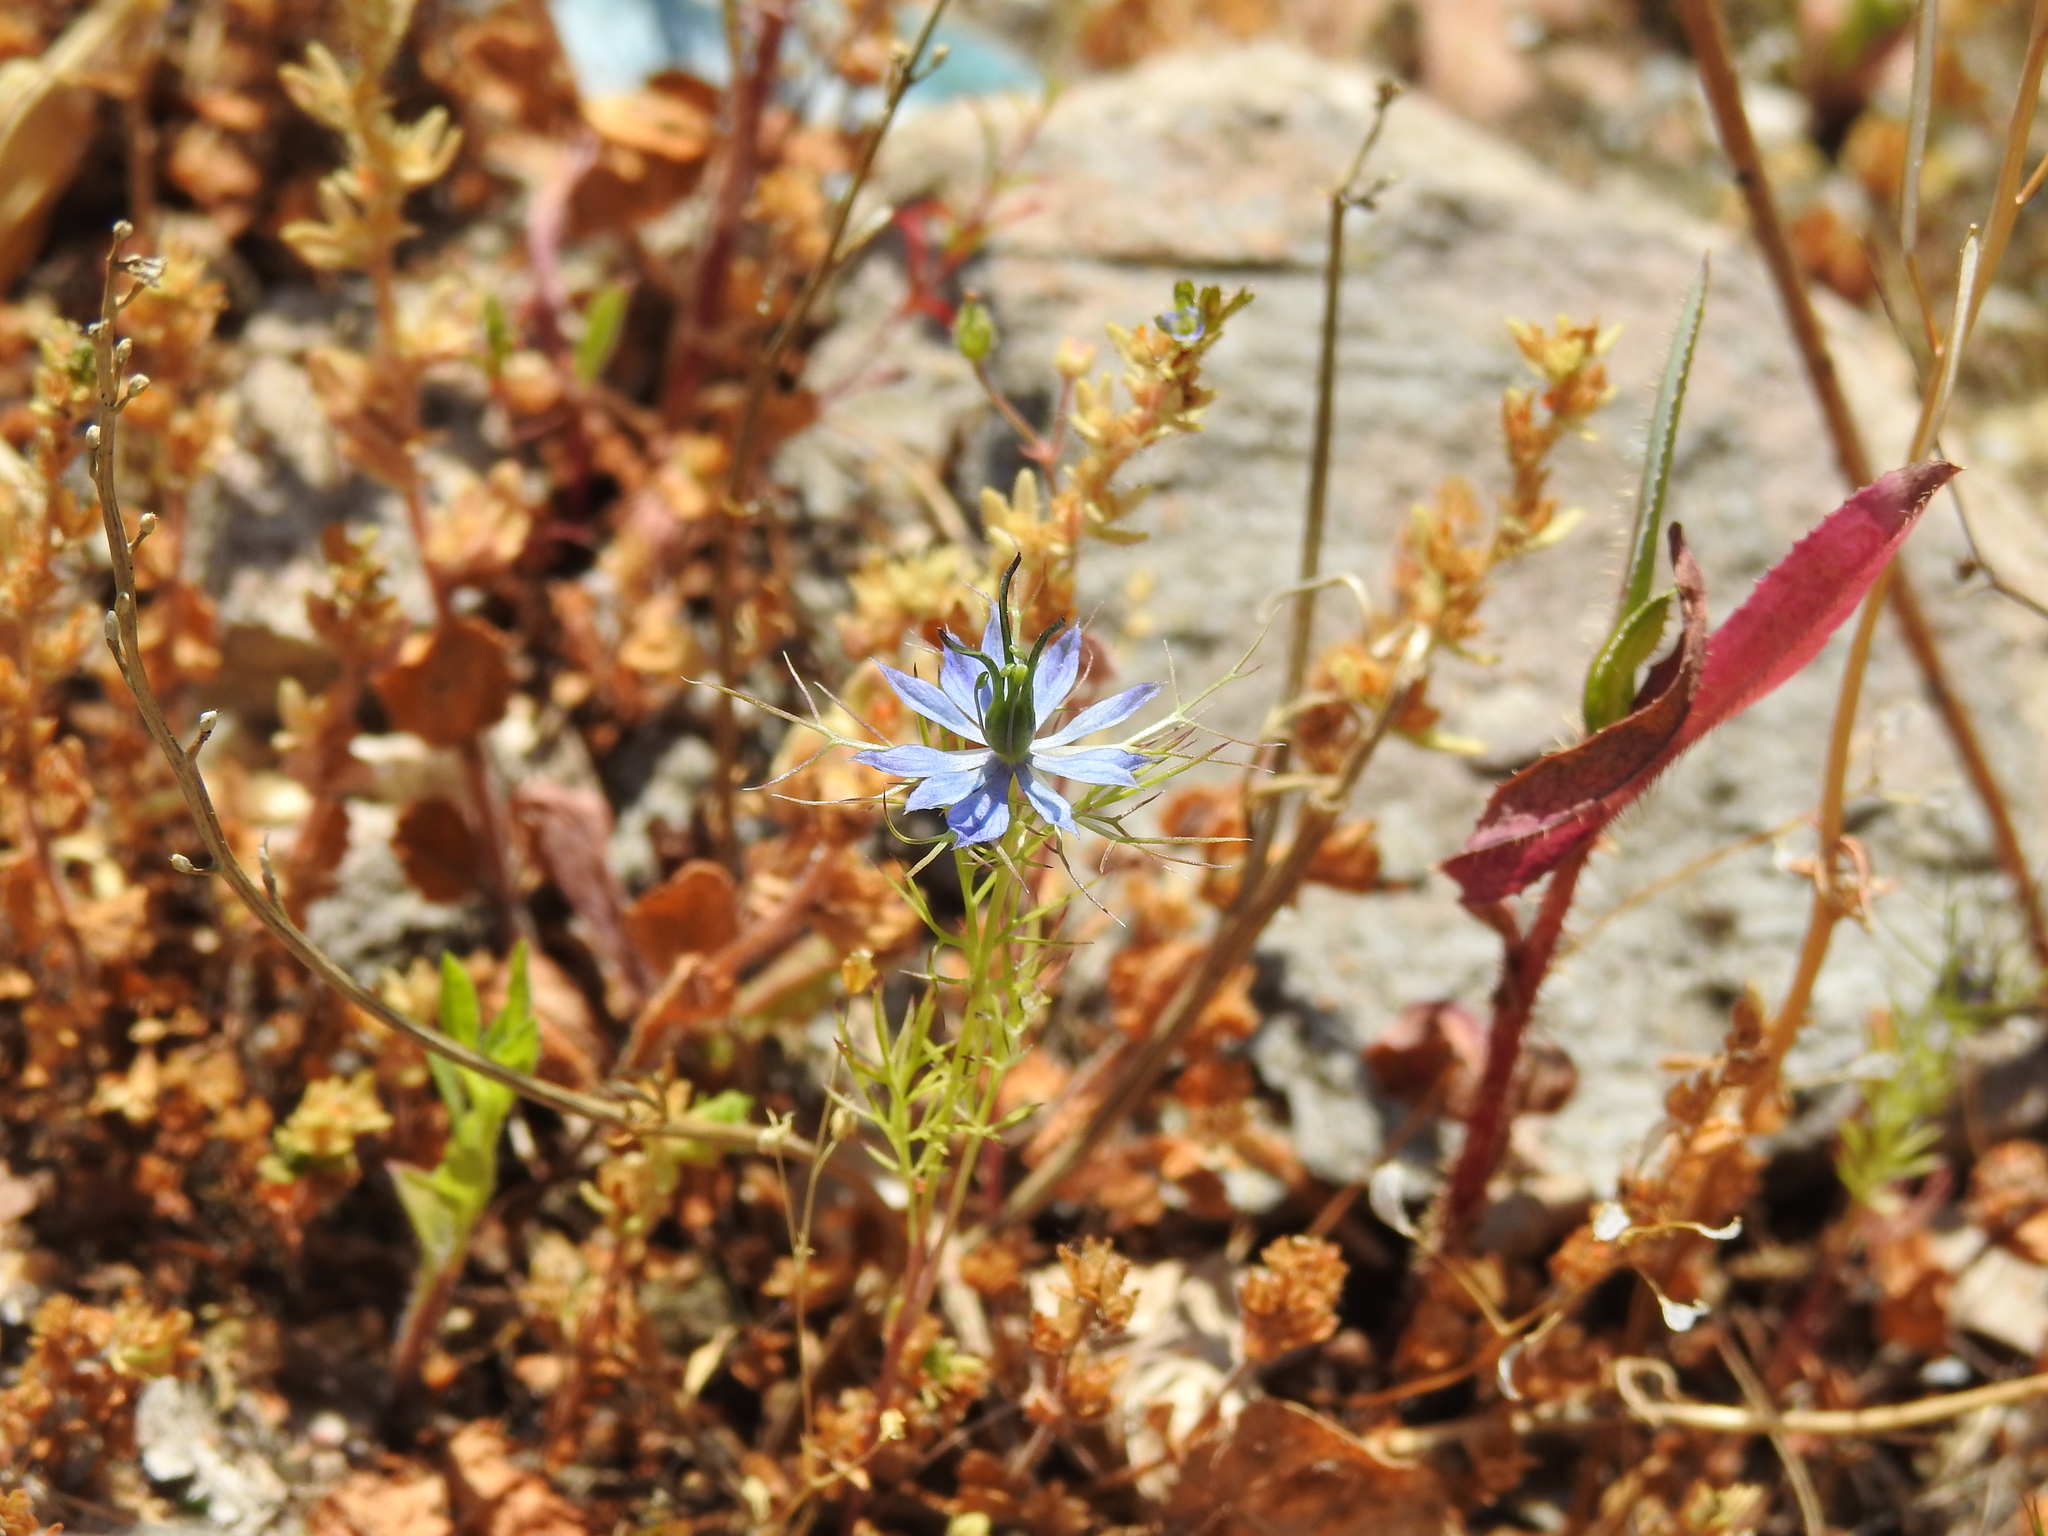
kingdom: Plantae
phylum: Tracheophyta
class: Magnoliopsida
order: Ranunculales
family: Ranunculaceae
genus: Nigella
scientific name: Nigella damascena
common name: Love-in-a-mist
